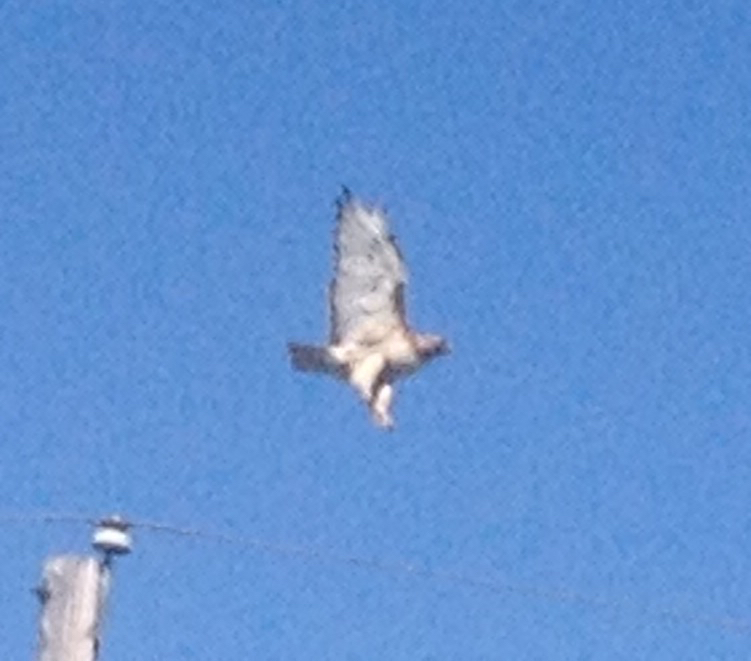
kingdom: Animalia
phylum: Chordata
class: Aves
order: Accipitriformes
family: Accipitridae
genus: Buteo
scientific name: Buteo jamaicensis
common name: Red-tailed hawk
